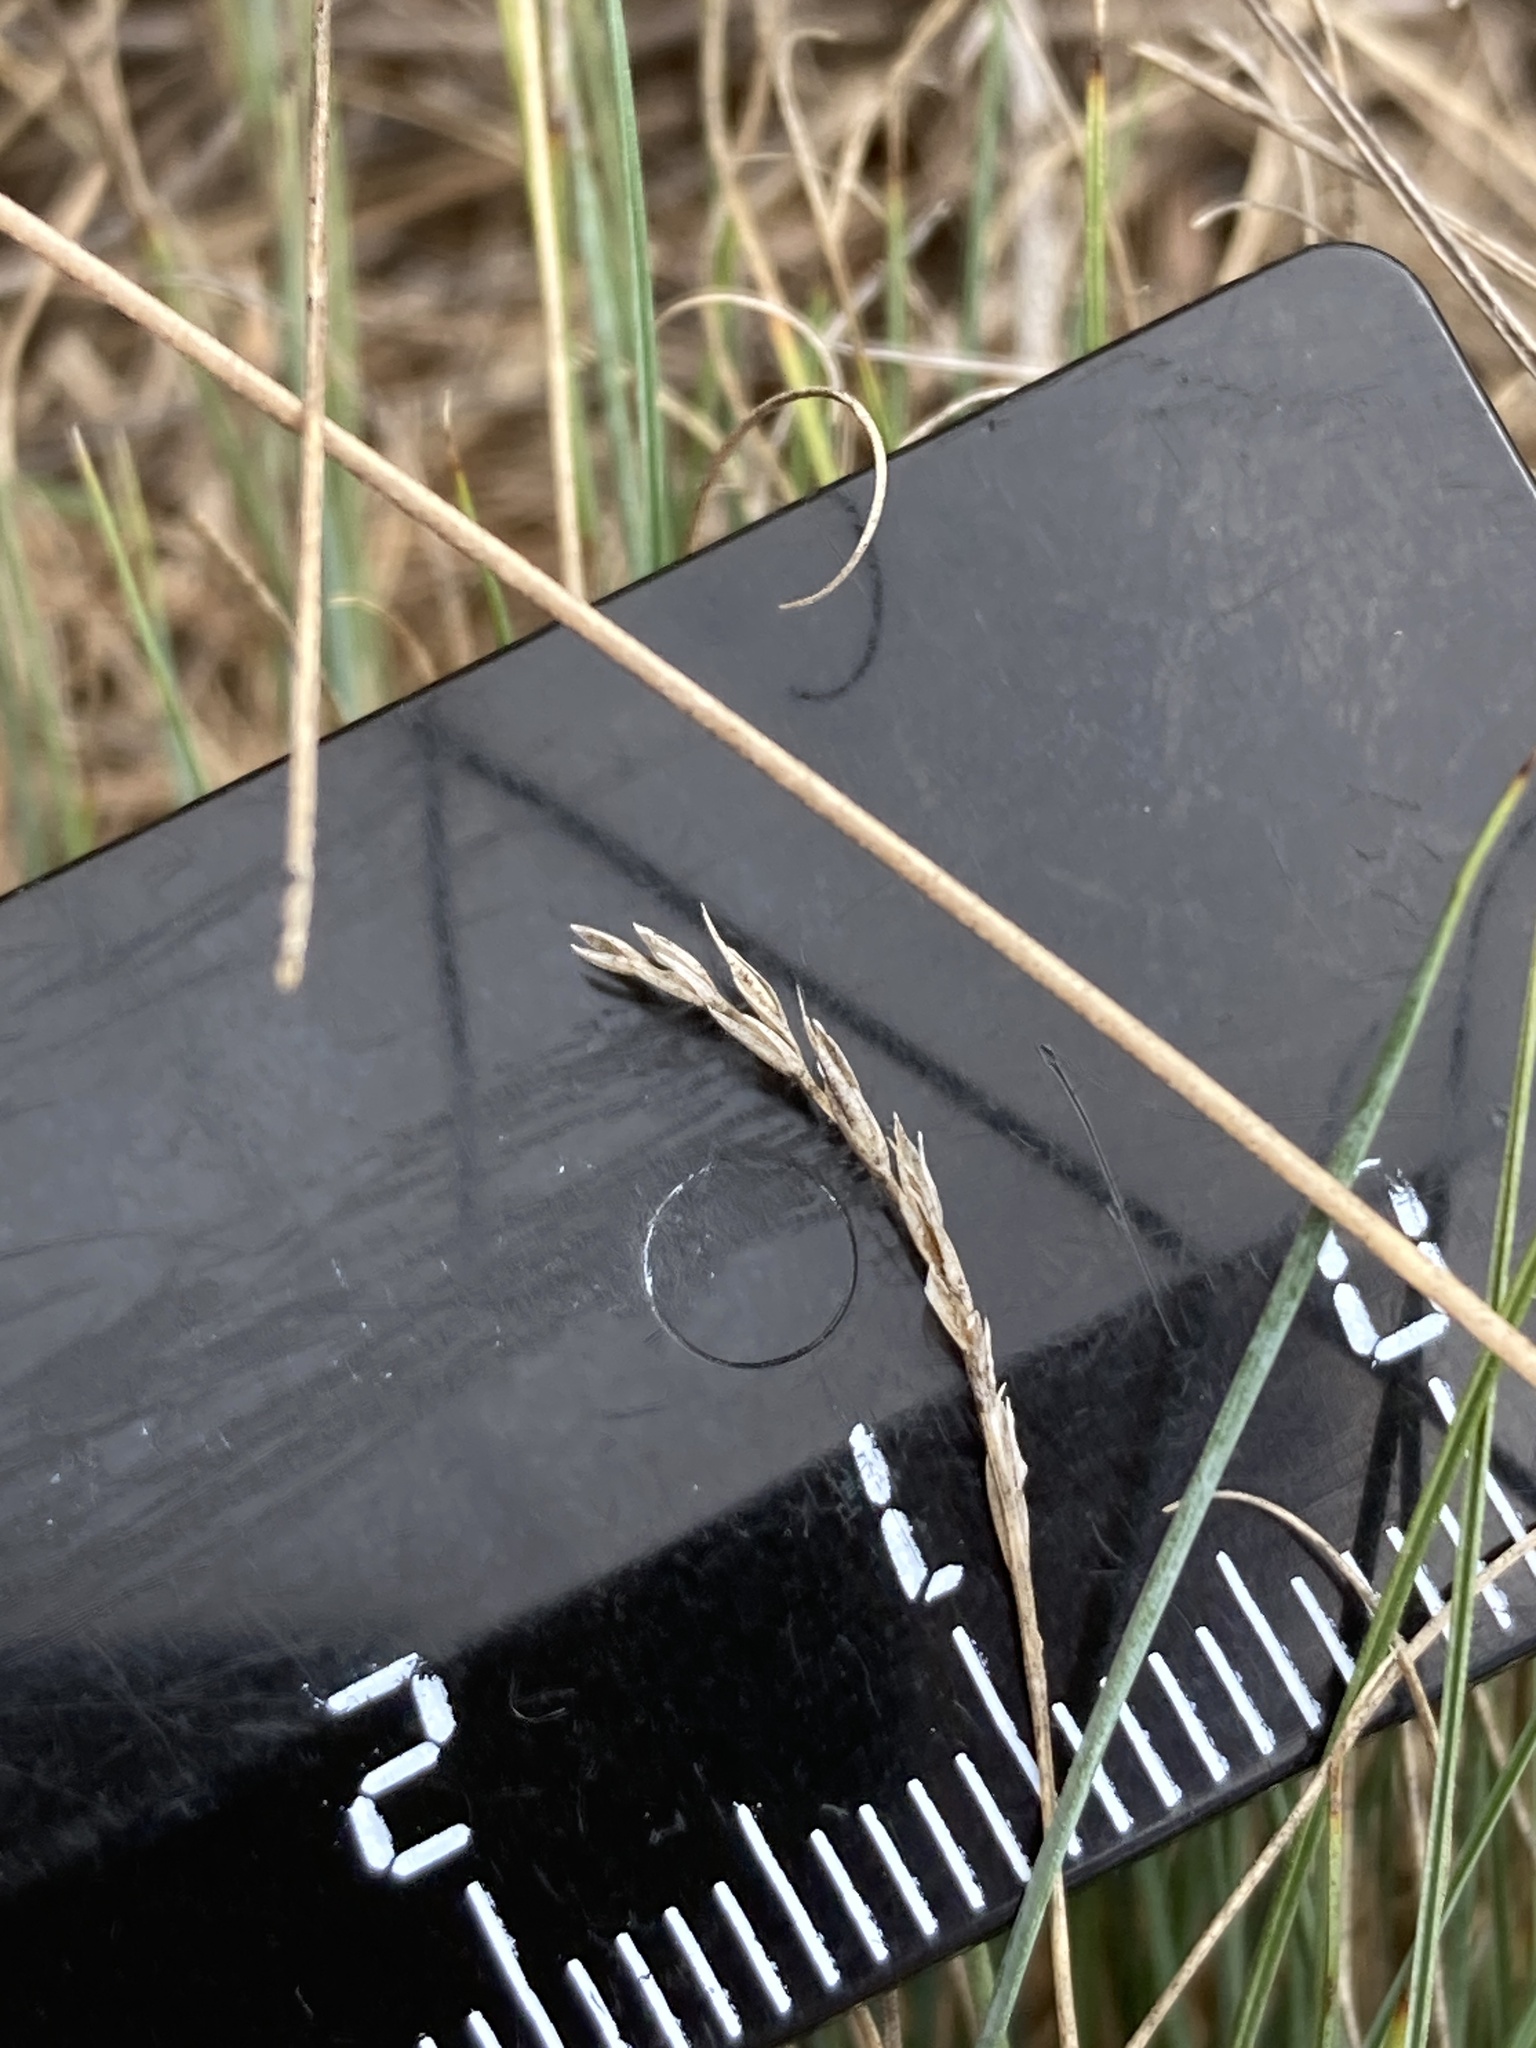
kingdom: Plantae
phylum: Tracheophyta
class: Liliopsida
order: Poales
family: Poaceae
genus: Festuca
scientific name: Festuca valesiaca
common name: Volga fescue
